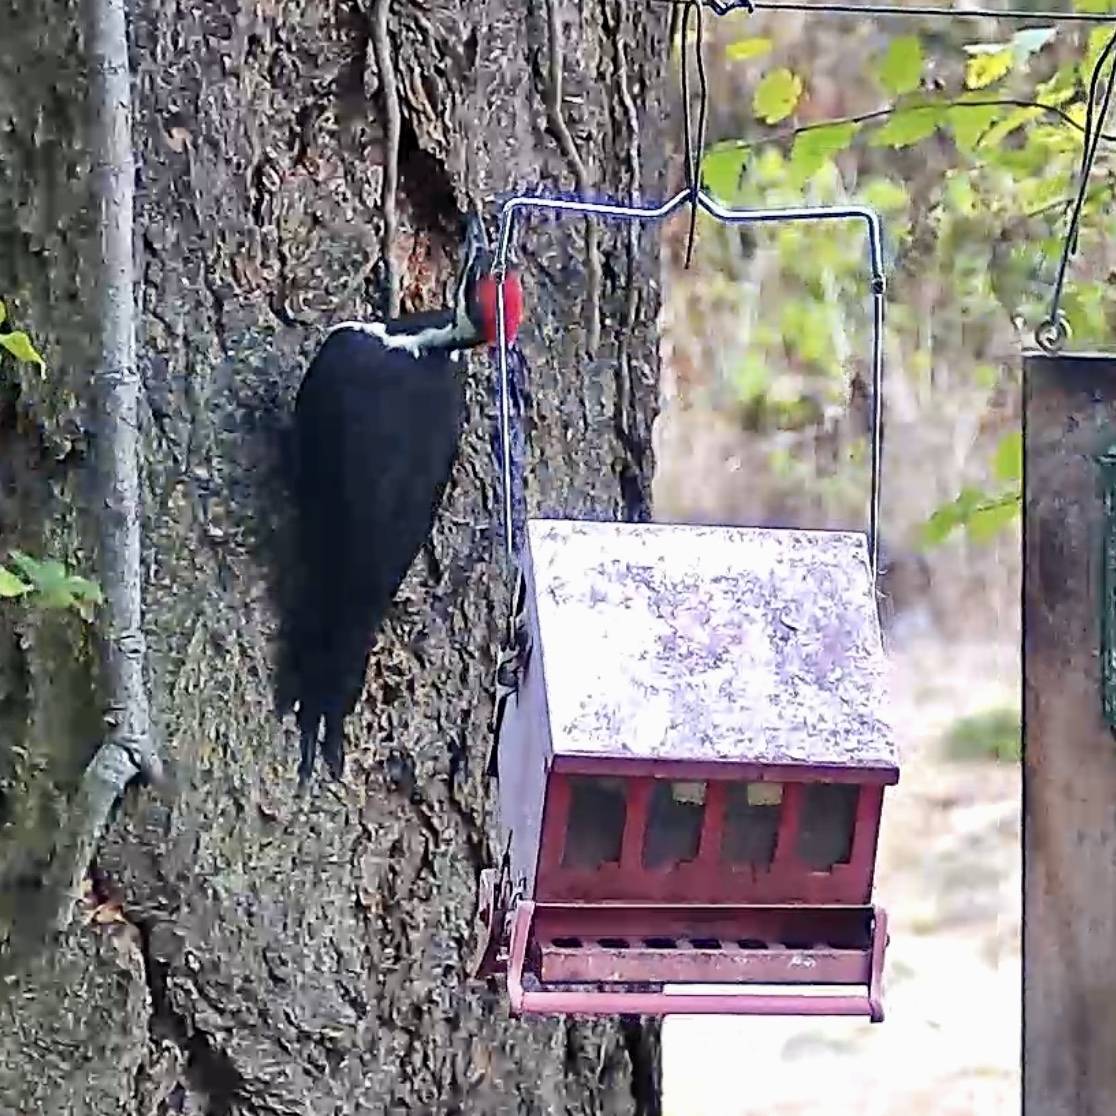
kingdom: Animalia
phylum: Chordata
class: Aves
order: Piciformes
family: Picidae
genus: Dryocopus
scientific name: Dryocopus pileatus
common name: Pileated woodpecker
